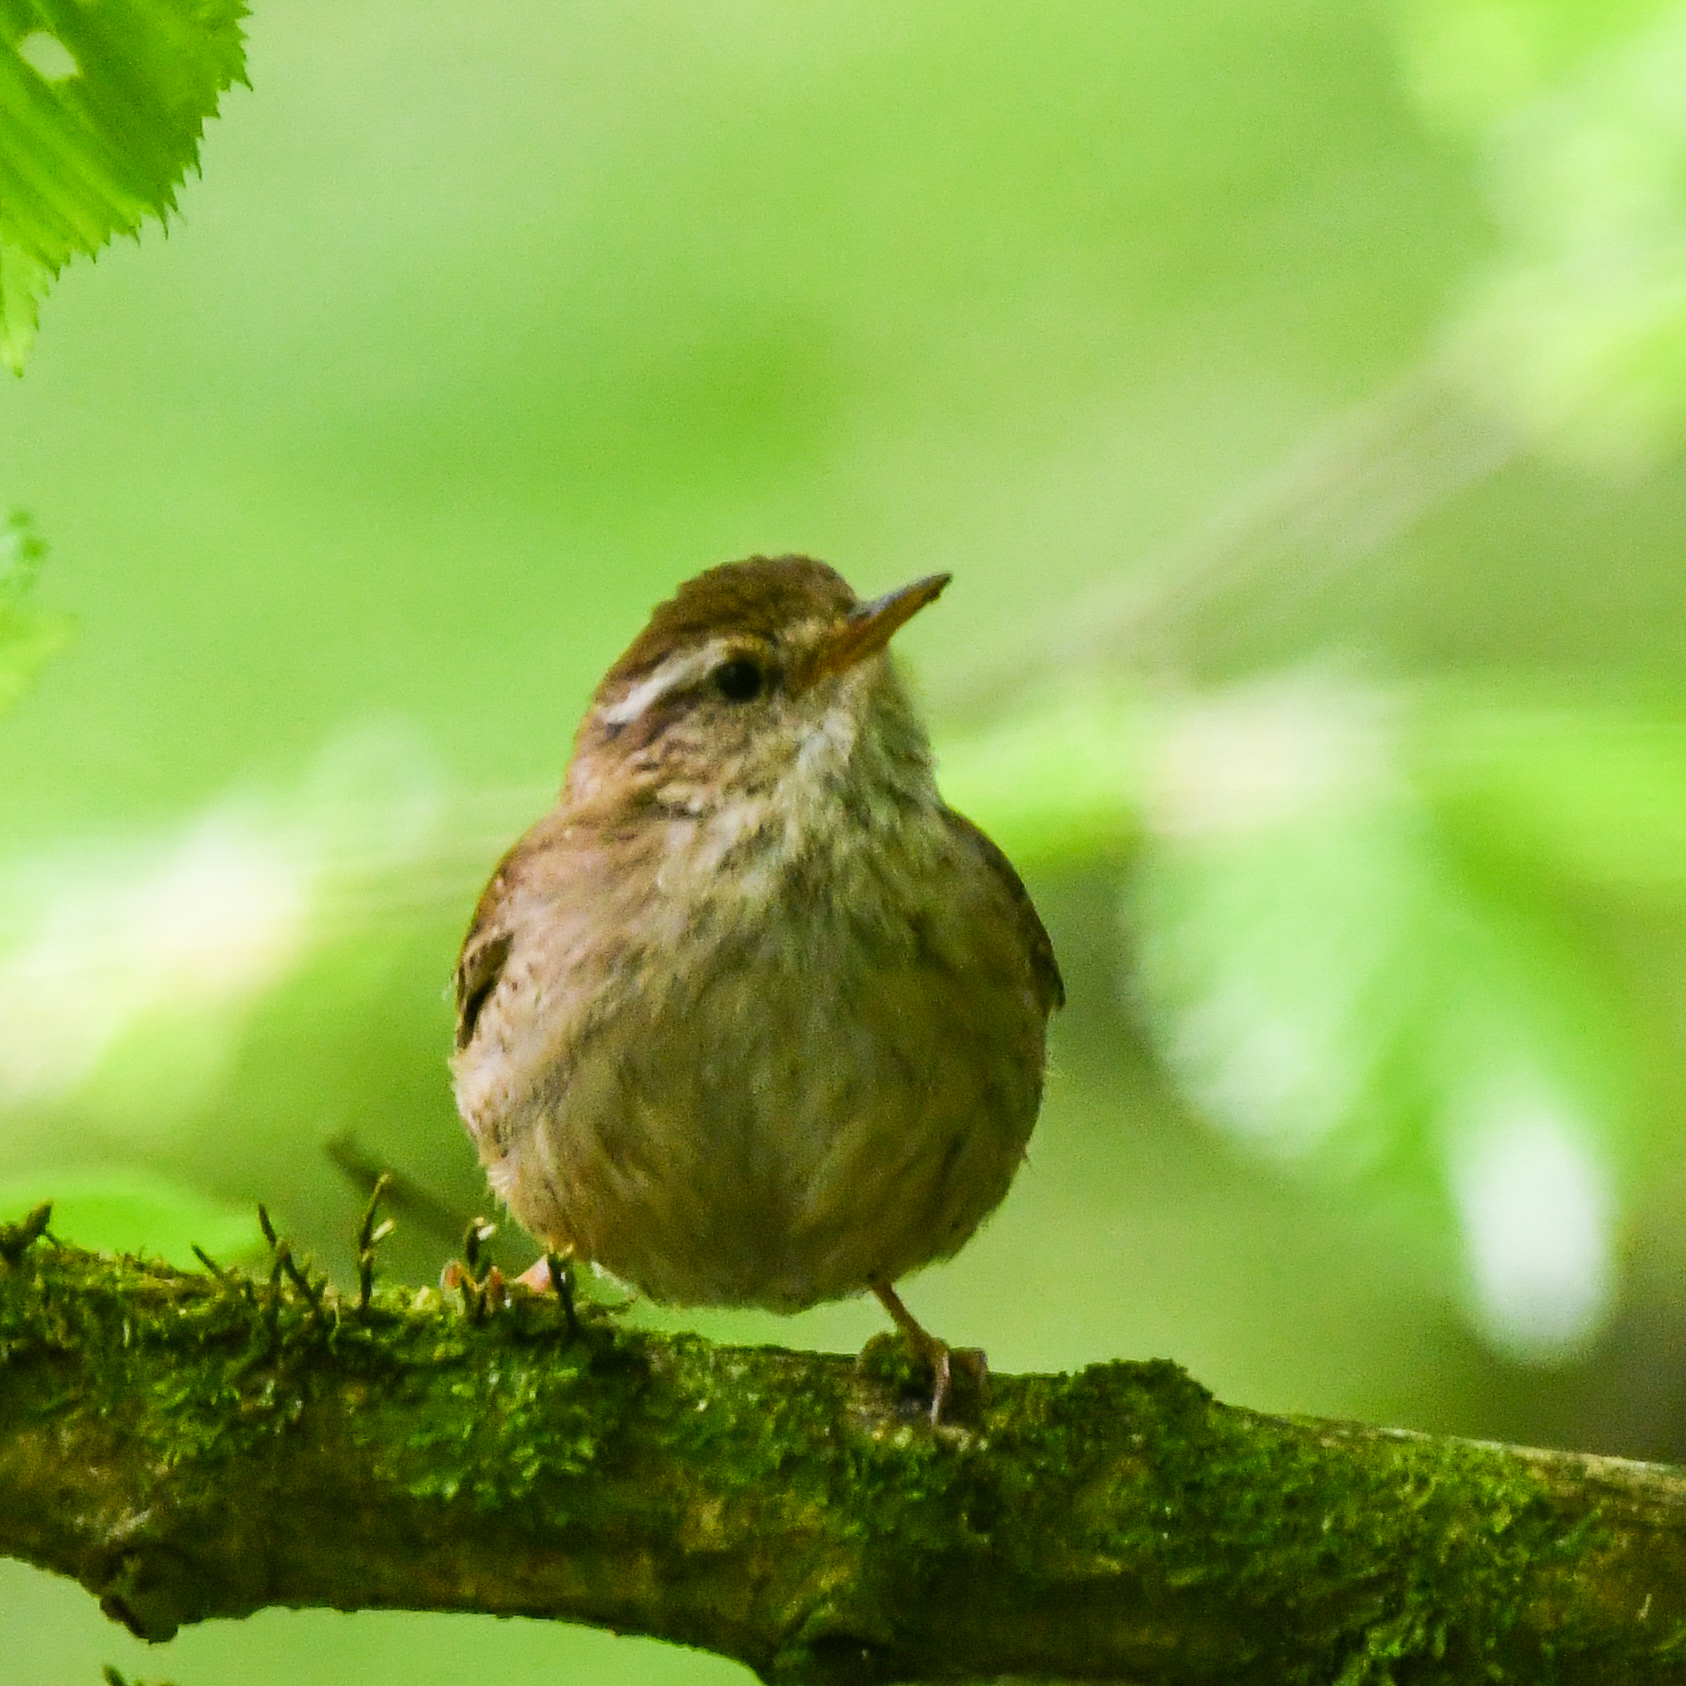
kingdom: Animalia
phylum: Chordata
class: Aves
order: Passeriformes
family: Troglodytidae
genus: Troglodytes
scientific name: Troglodytes troglodytes
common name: Eurasian wren
